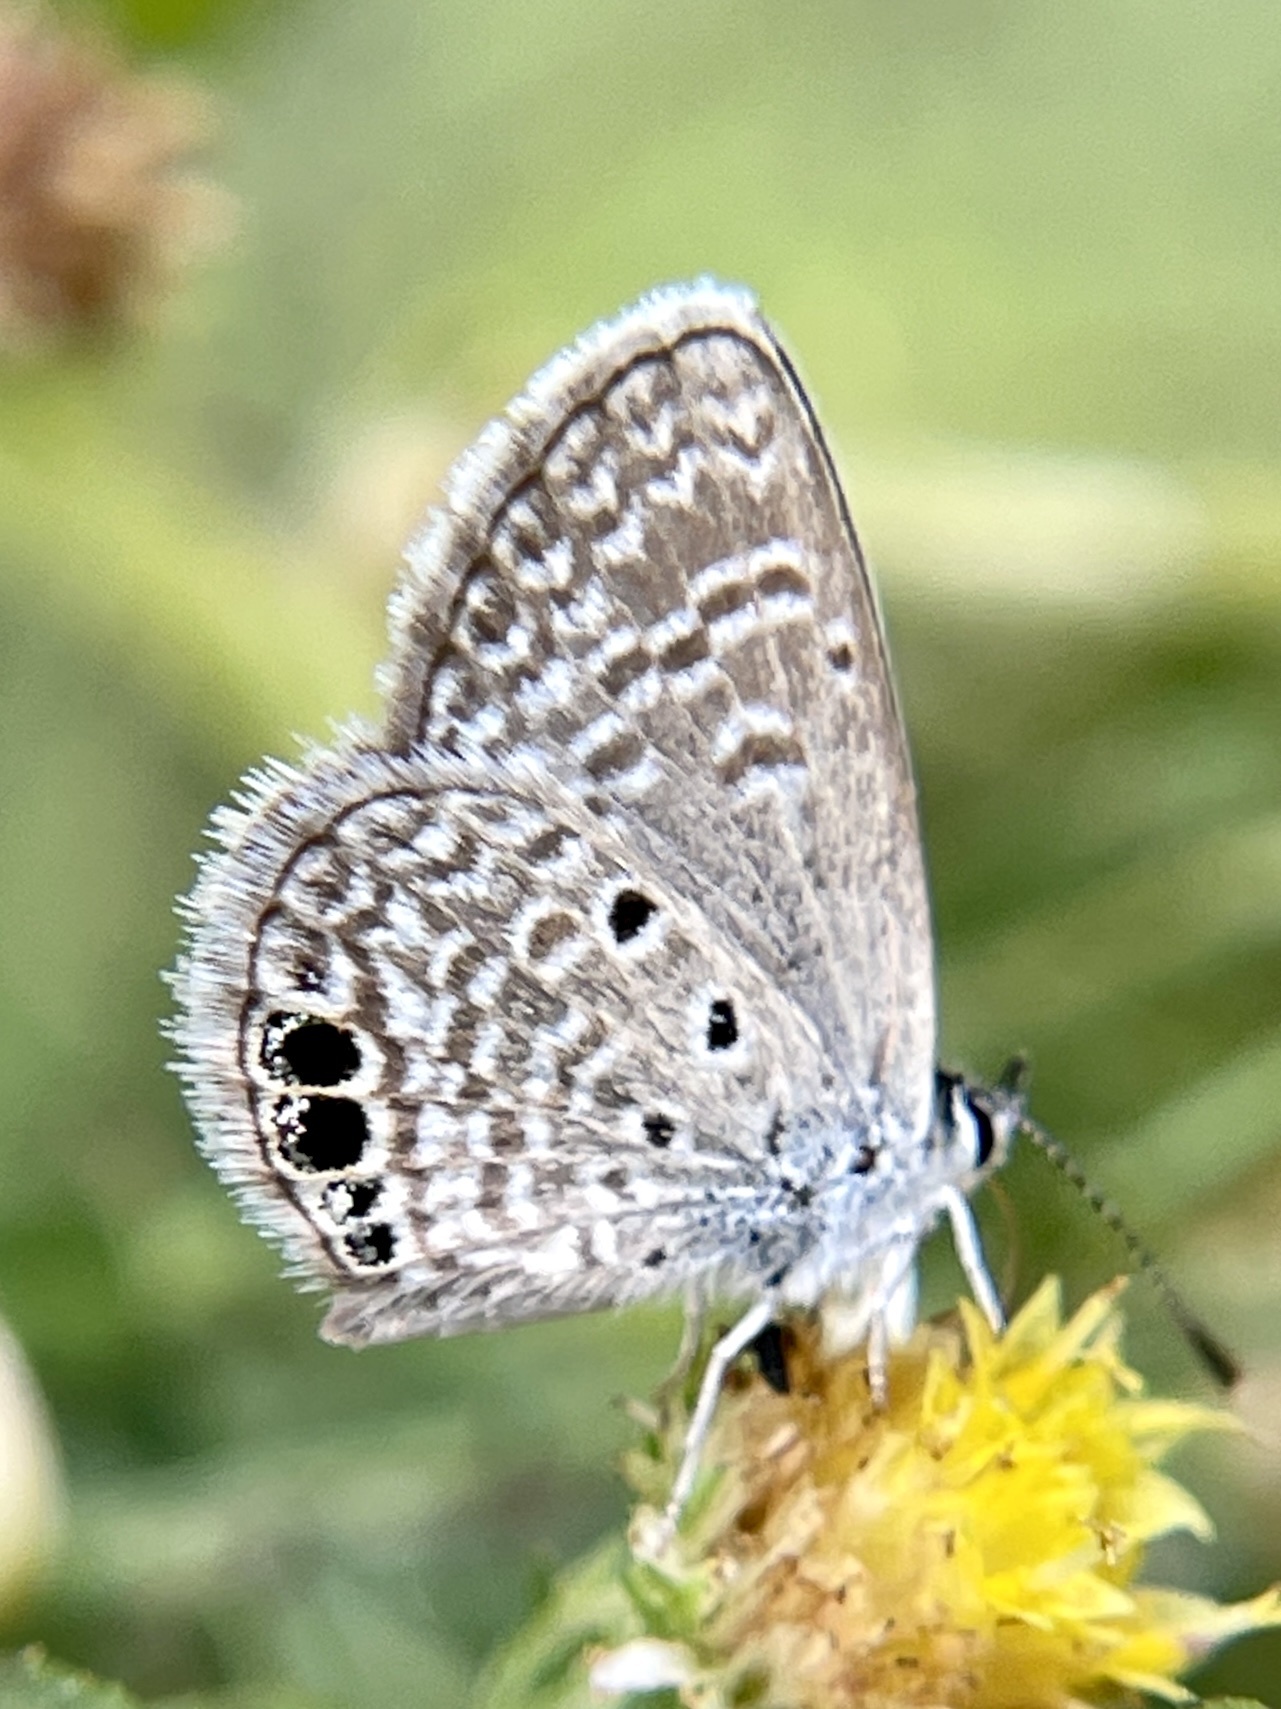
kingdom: Animalia
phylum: Arthropoda
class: Insecta
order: Lepidoptera
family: Lycaenidae
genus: Hemiargus
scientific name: Hemiargus ceraunus
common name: Ceraunus blue
